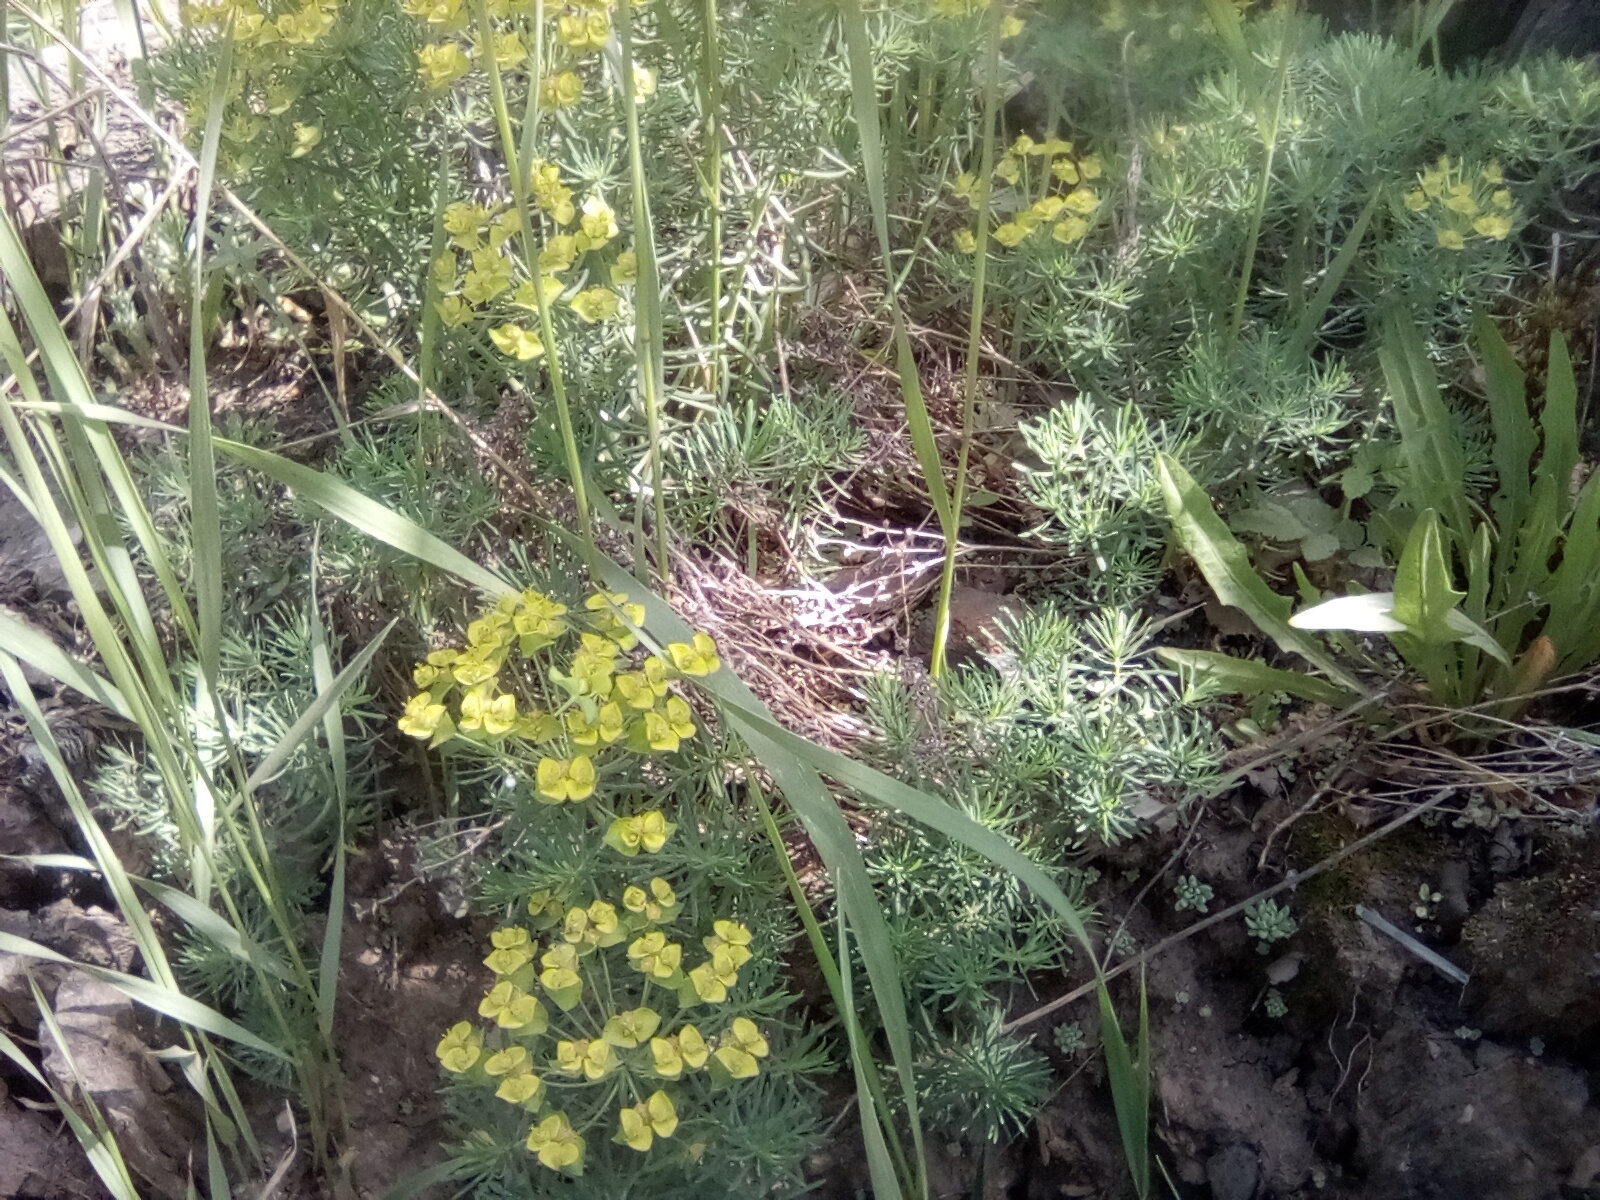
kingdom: Plantae
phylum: Tracheophyta
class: Magnoliopsida
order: Malpighiales
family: Euphorbiaceae
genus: Euphorbia
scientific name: Euphorbia cyparissias
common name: Cypress spurge
